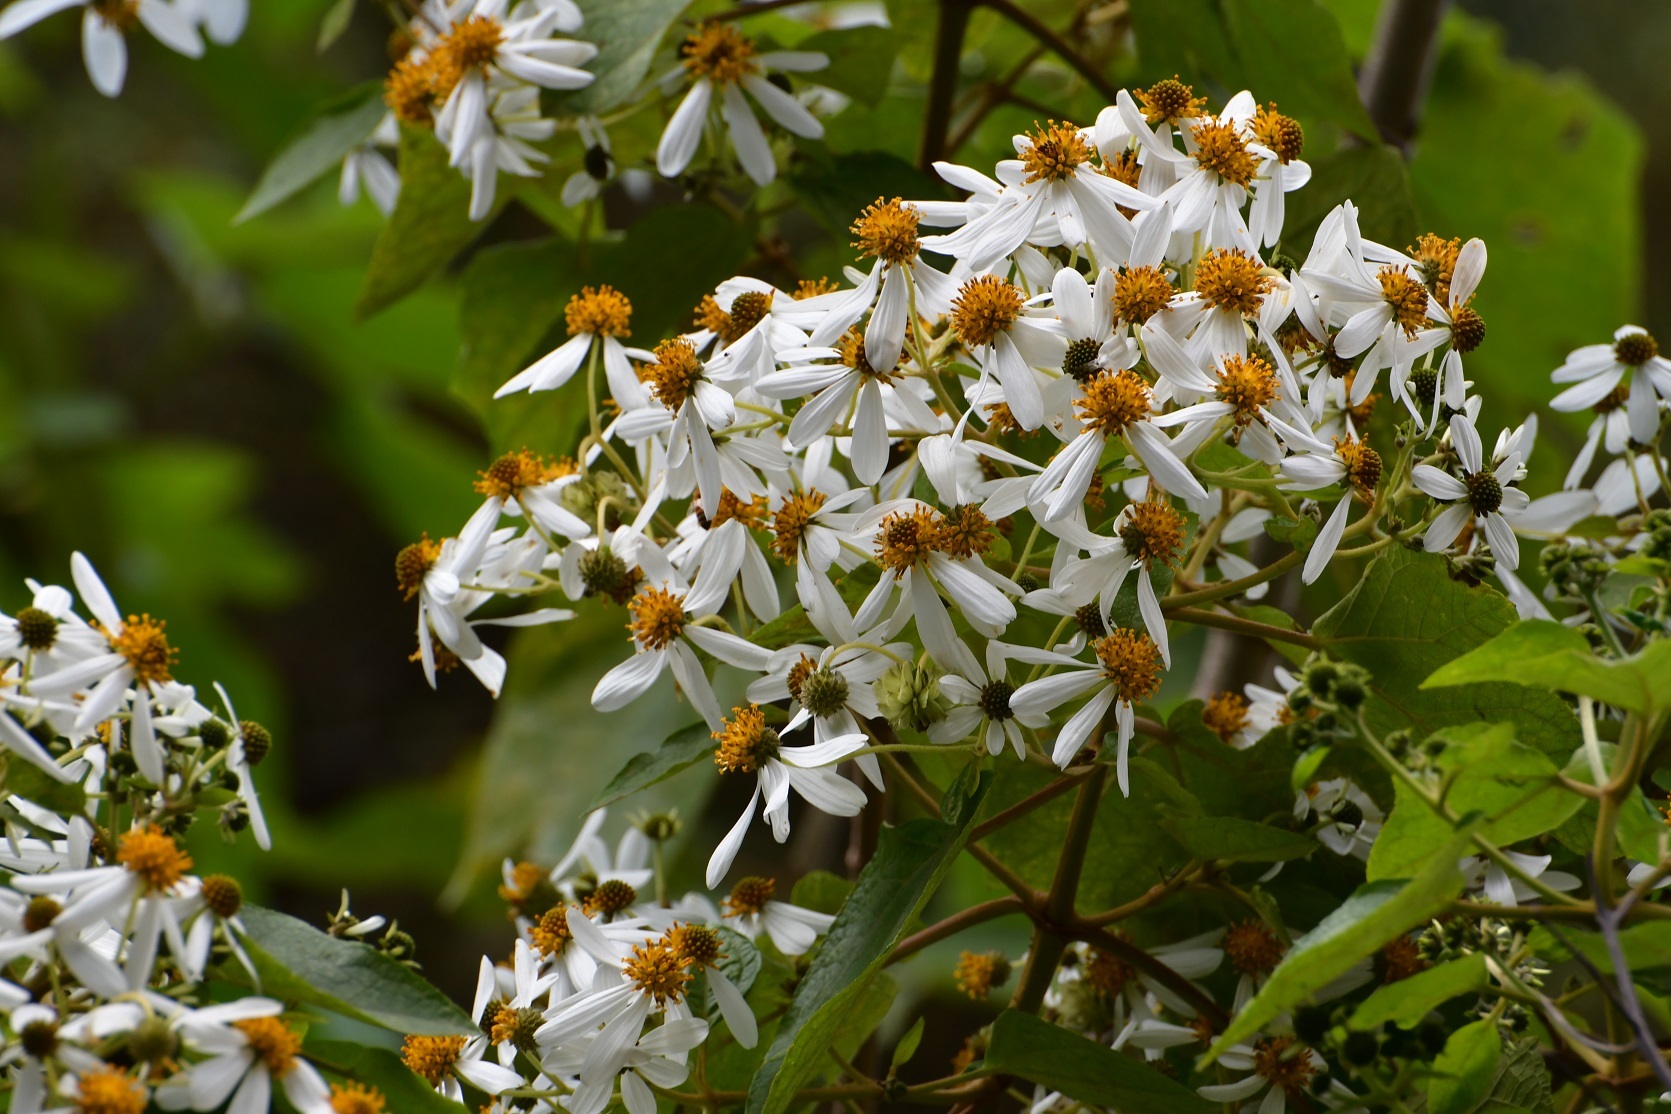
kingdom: Plantae
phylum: Tracheophyta
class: Magnoliopsida
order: Asterales
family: Asteraceae
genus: Montanoa
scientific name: Montanoa leucantha
